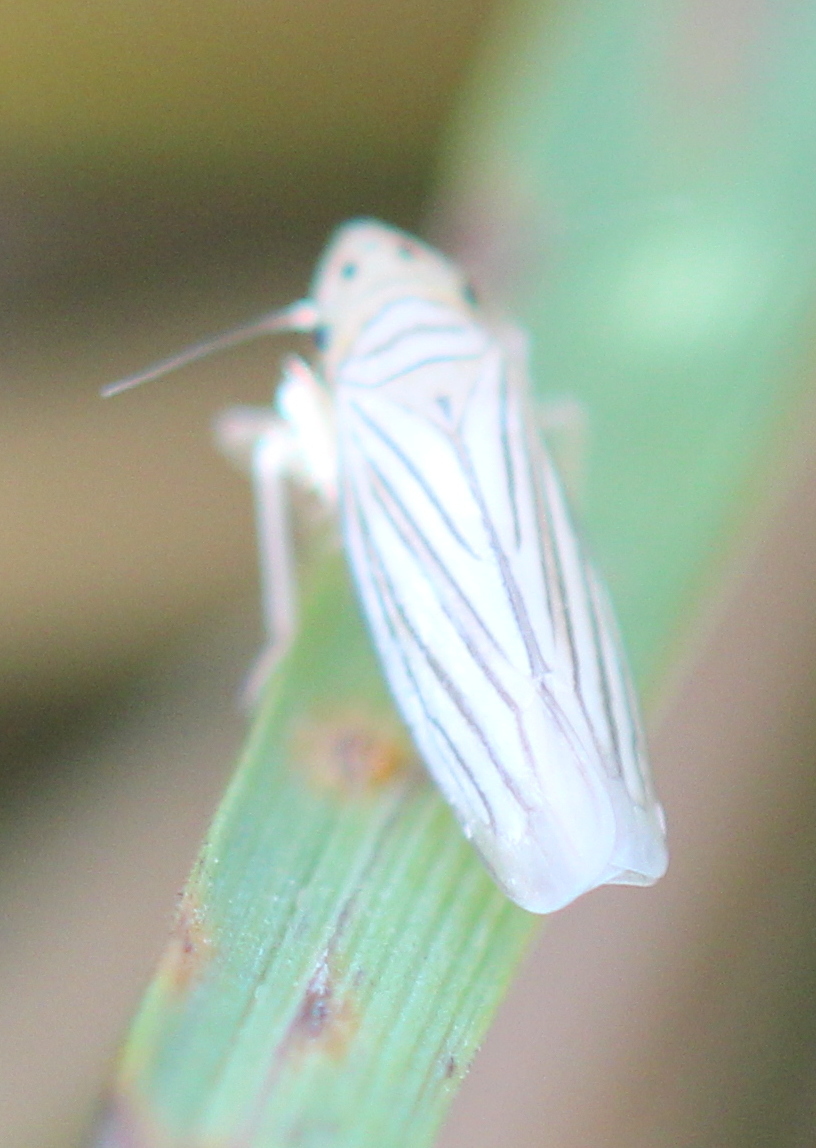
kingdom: Animalia
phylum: Arthropoda
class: Insecta
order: Hemiptera
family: Cicadellidae
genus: Provancherana
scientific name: Provancherana tripunctata
